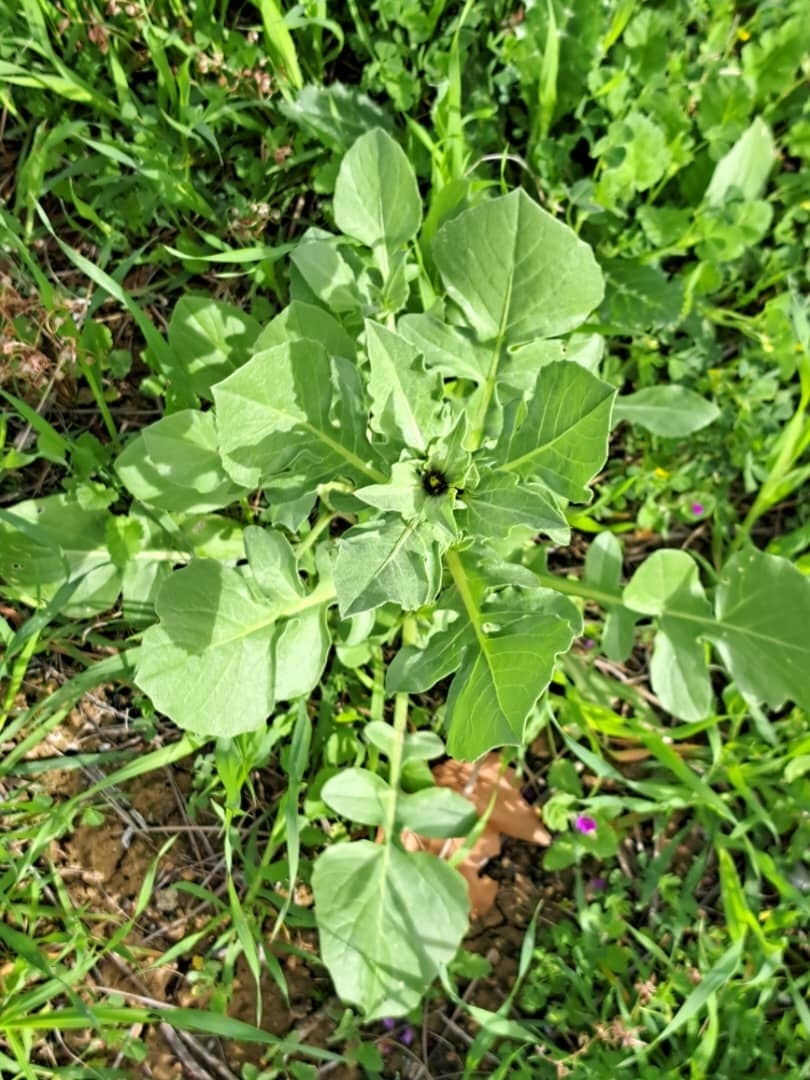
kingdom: Plantae
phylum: Tracheophyta
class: Magnoliopsida
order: Asterales
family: Asteraceae
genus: Centaurea
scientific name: Centaurea pullata
